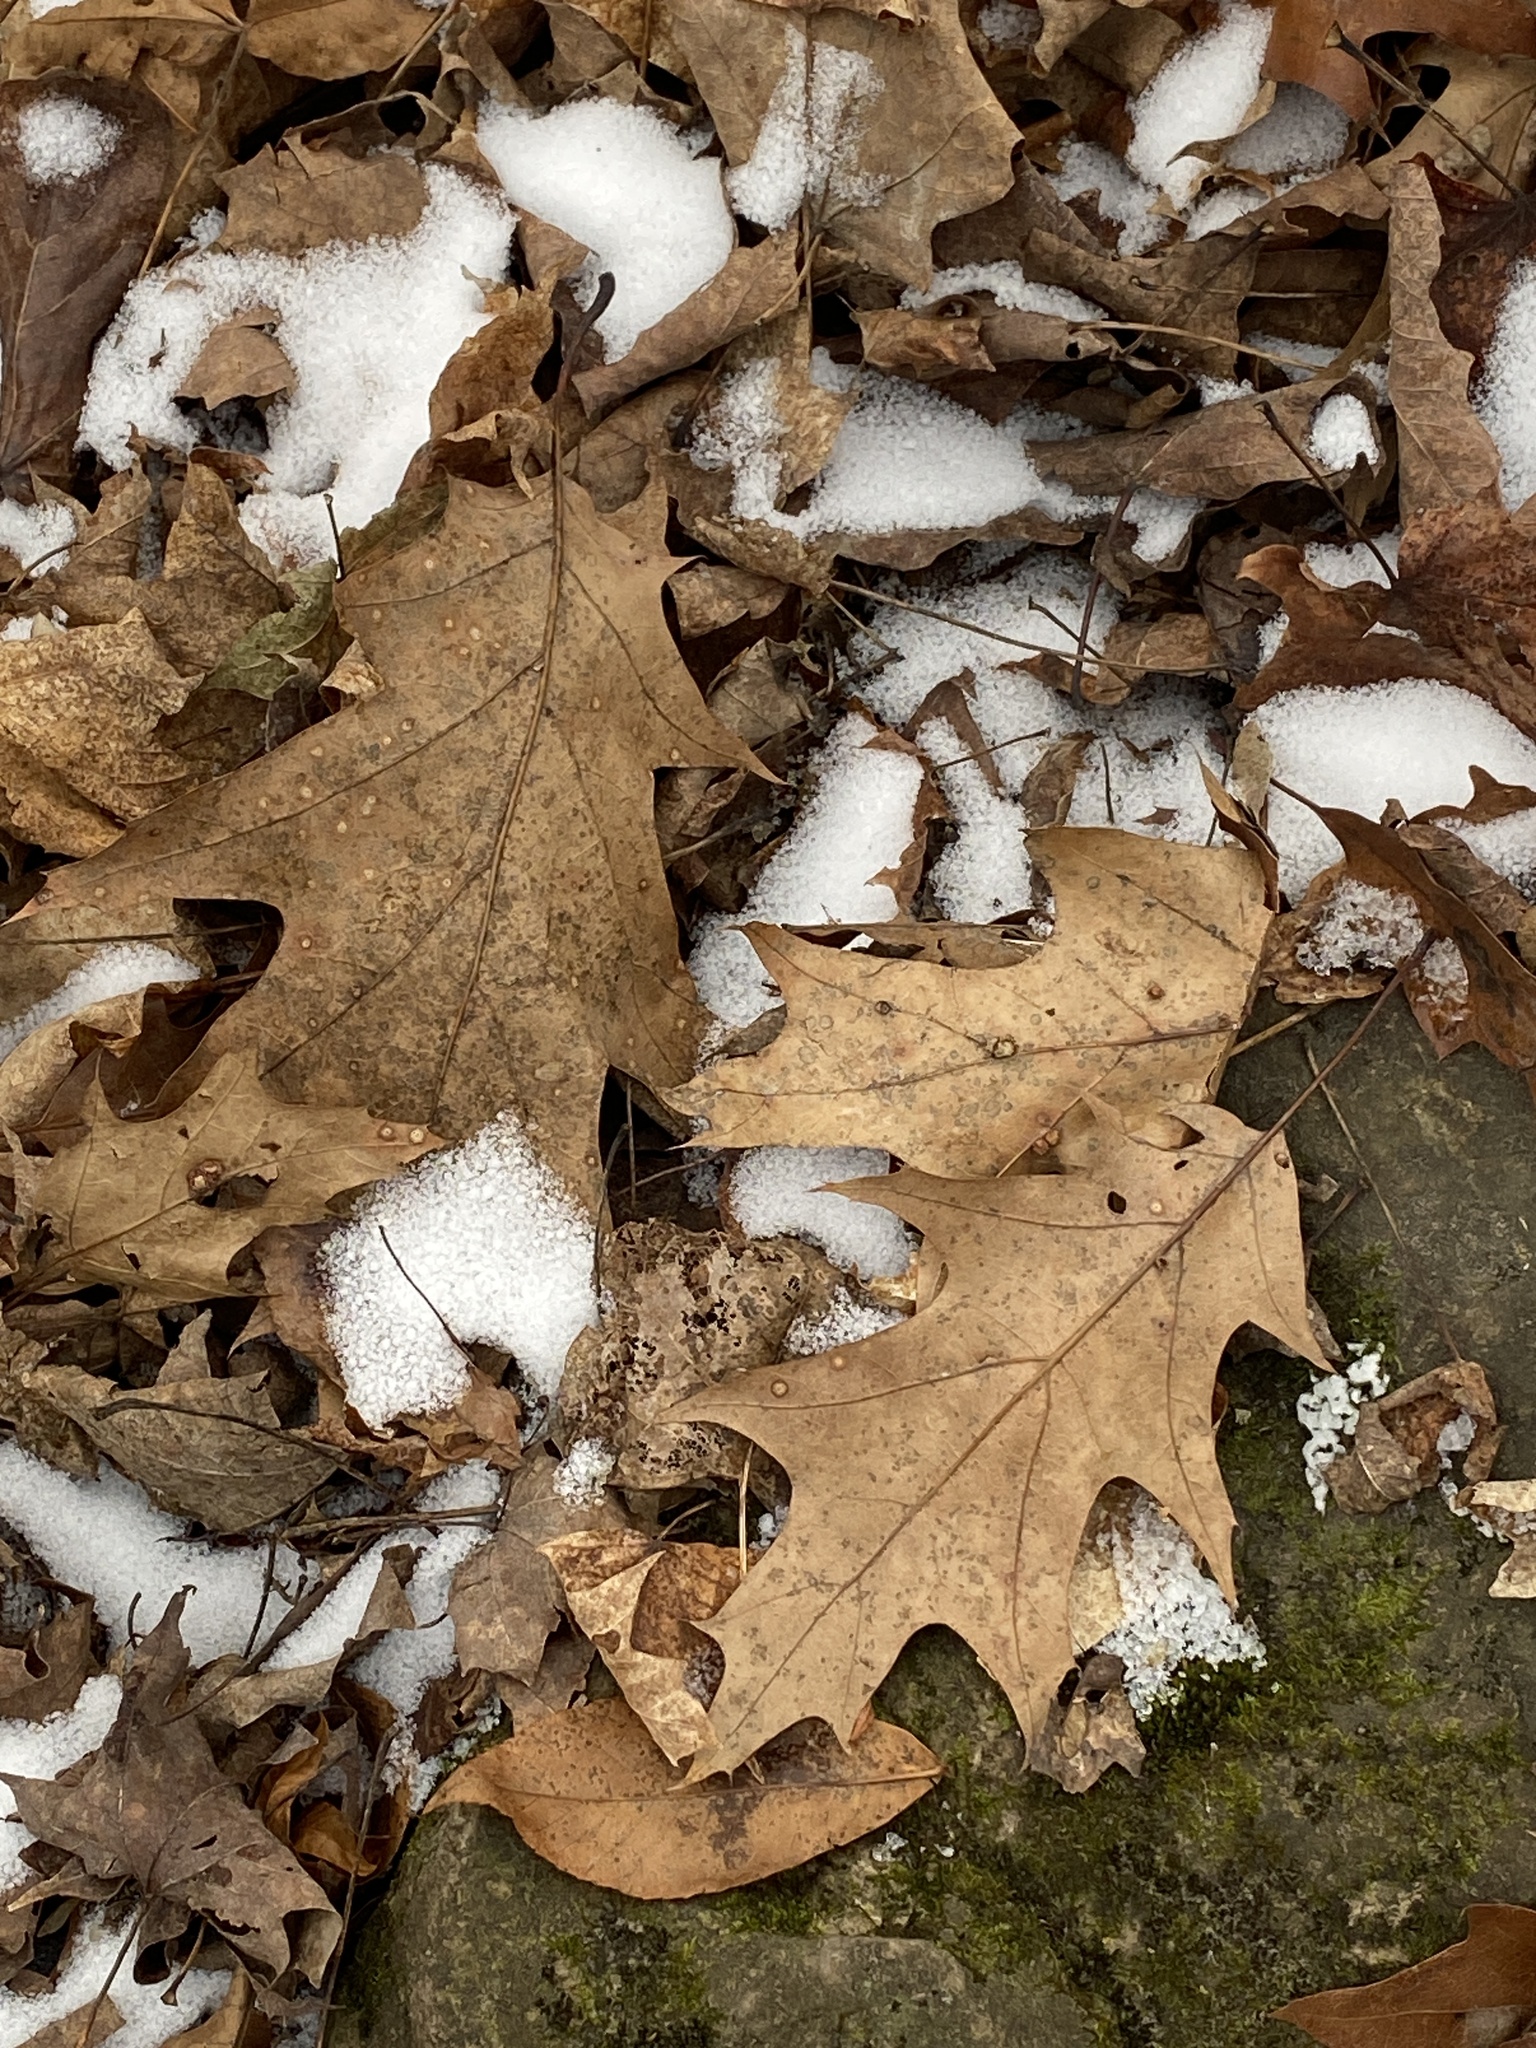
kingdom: Plantae
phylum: Tracheophyta
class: Magnoliopsida
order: Fagales
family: Fagaceae
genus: Quercus
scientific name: Quercus rubra
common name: Red oak
